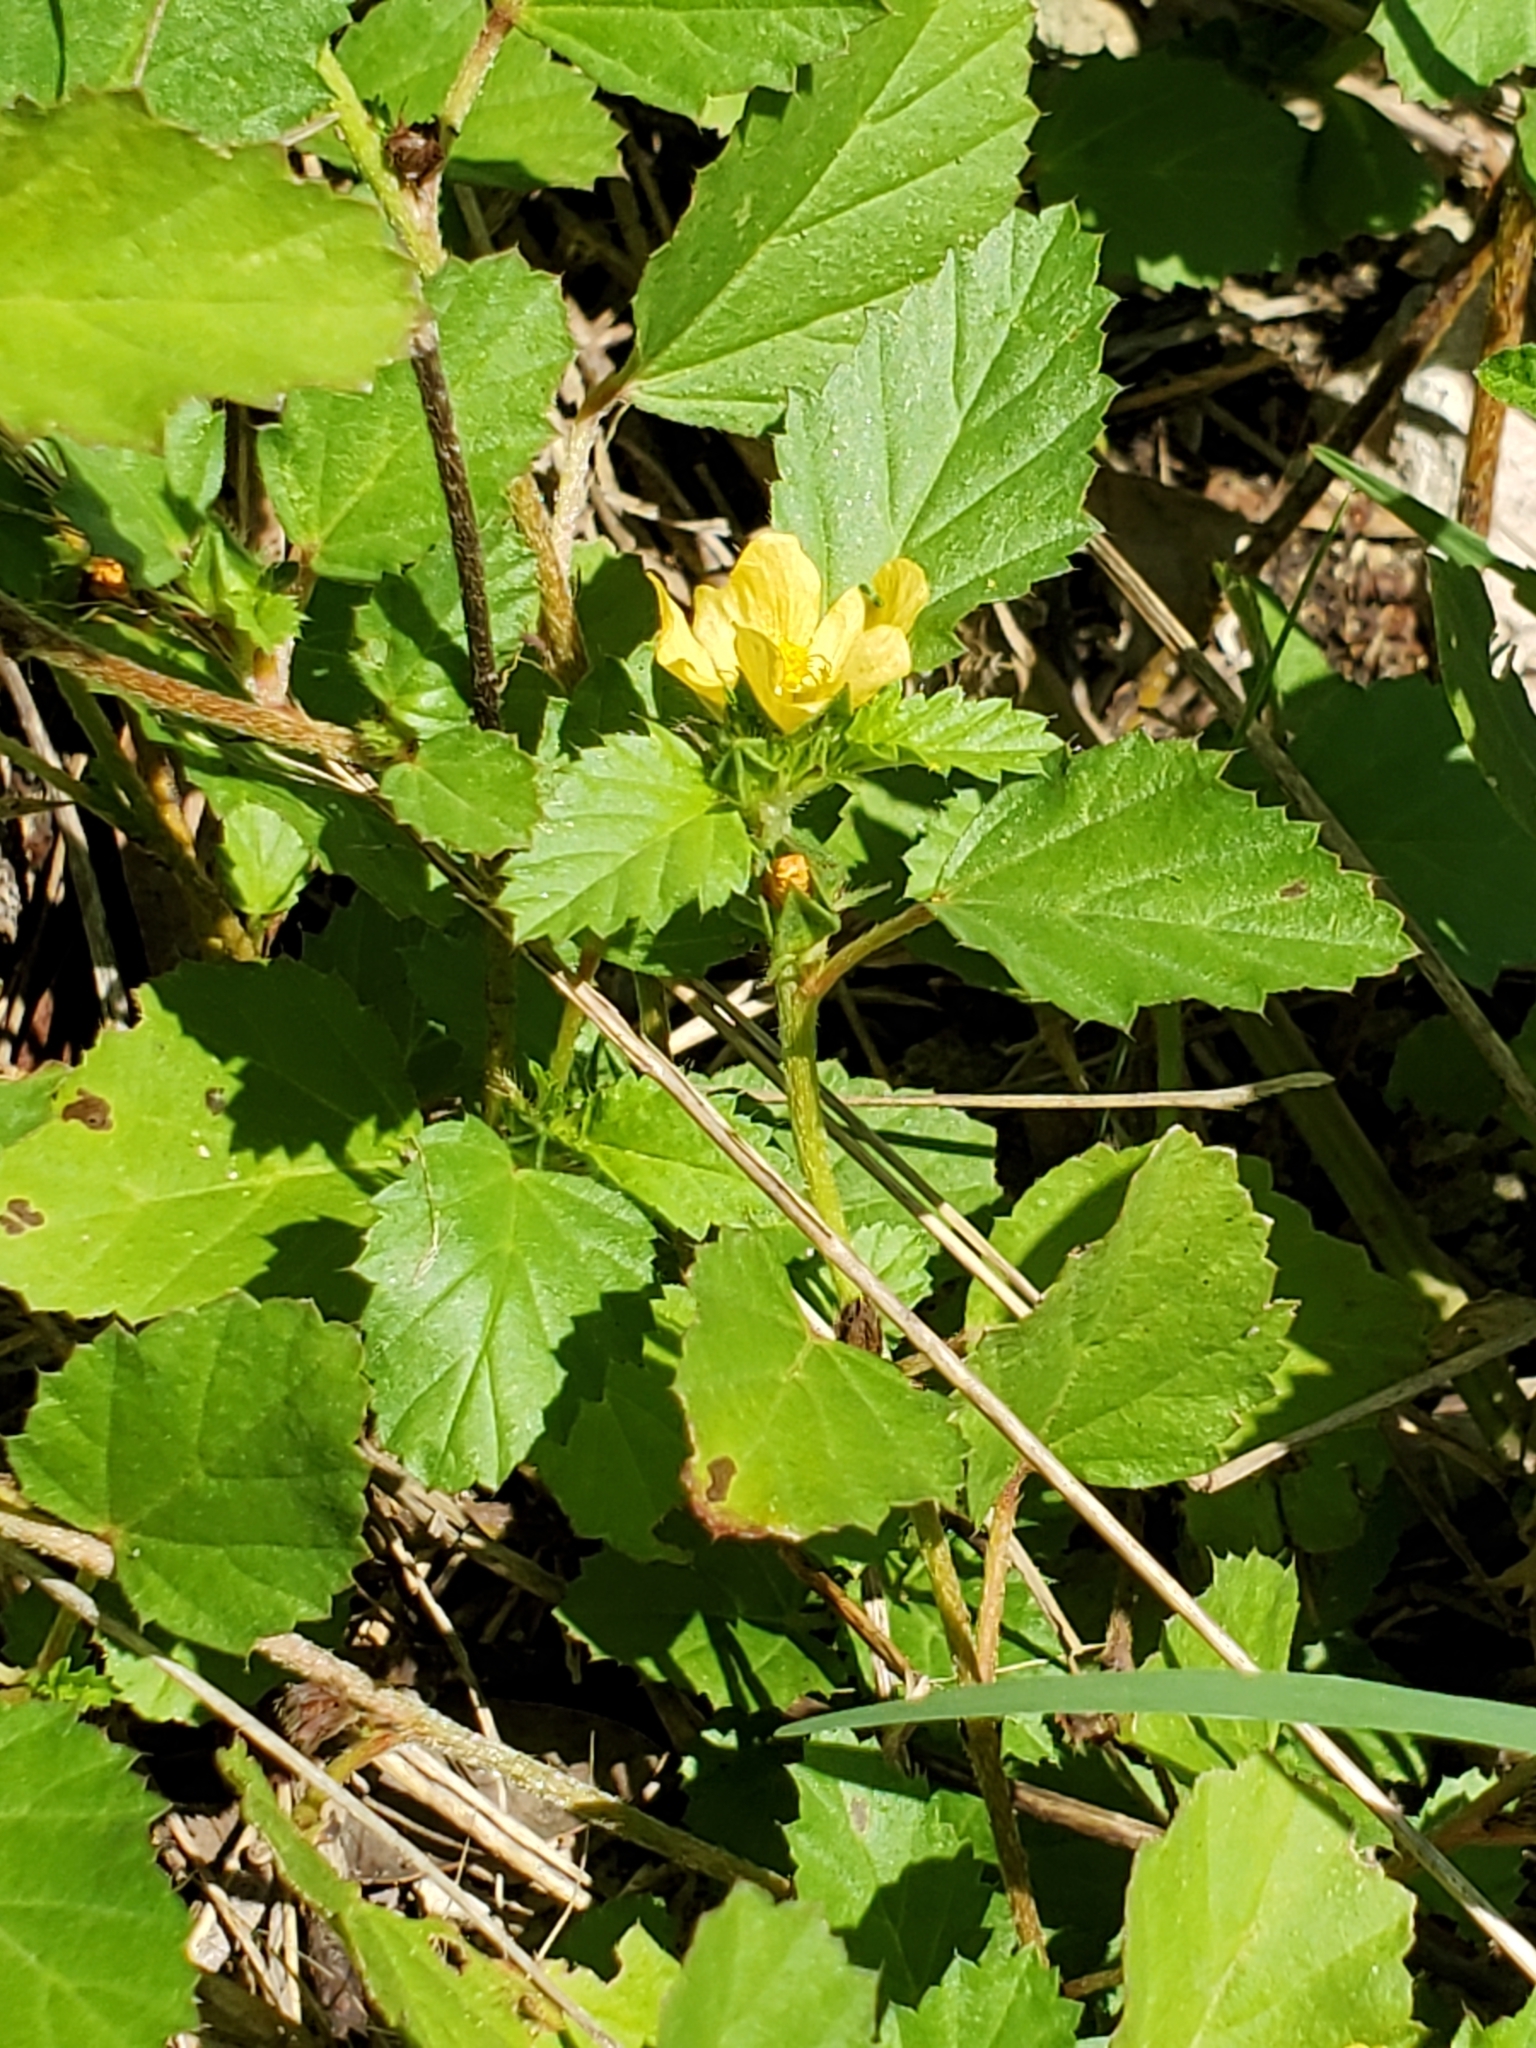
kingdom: Plantae
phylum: Tracheophyta
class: Magnoliopsida
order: Malvales
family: Malvaceae
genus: Malvastrum
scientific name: Malvastrum coromandelianum
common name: Threelobe false mallow
